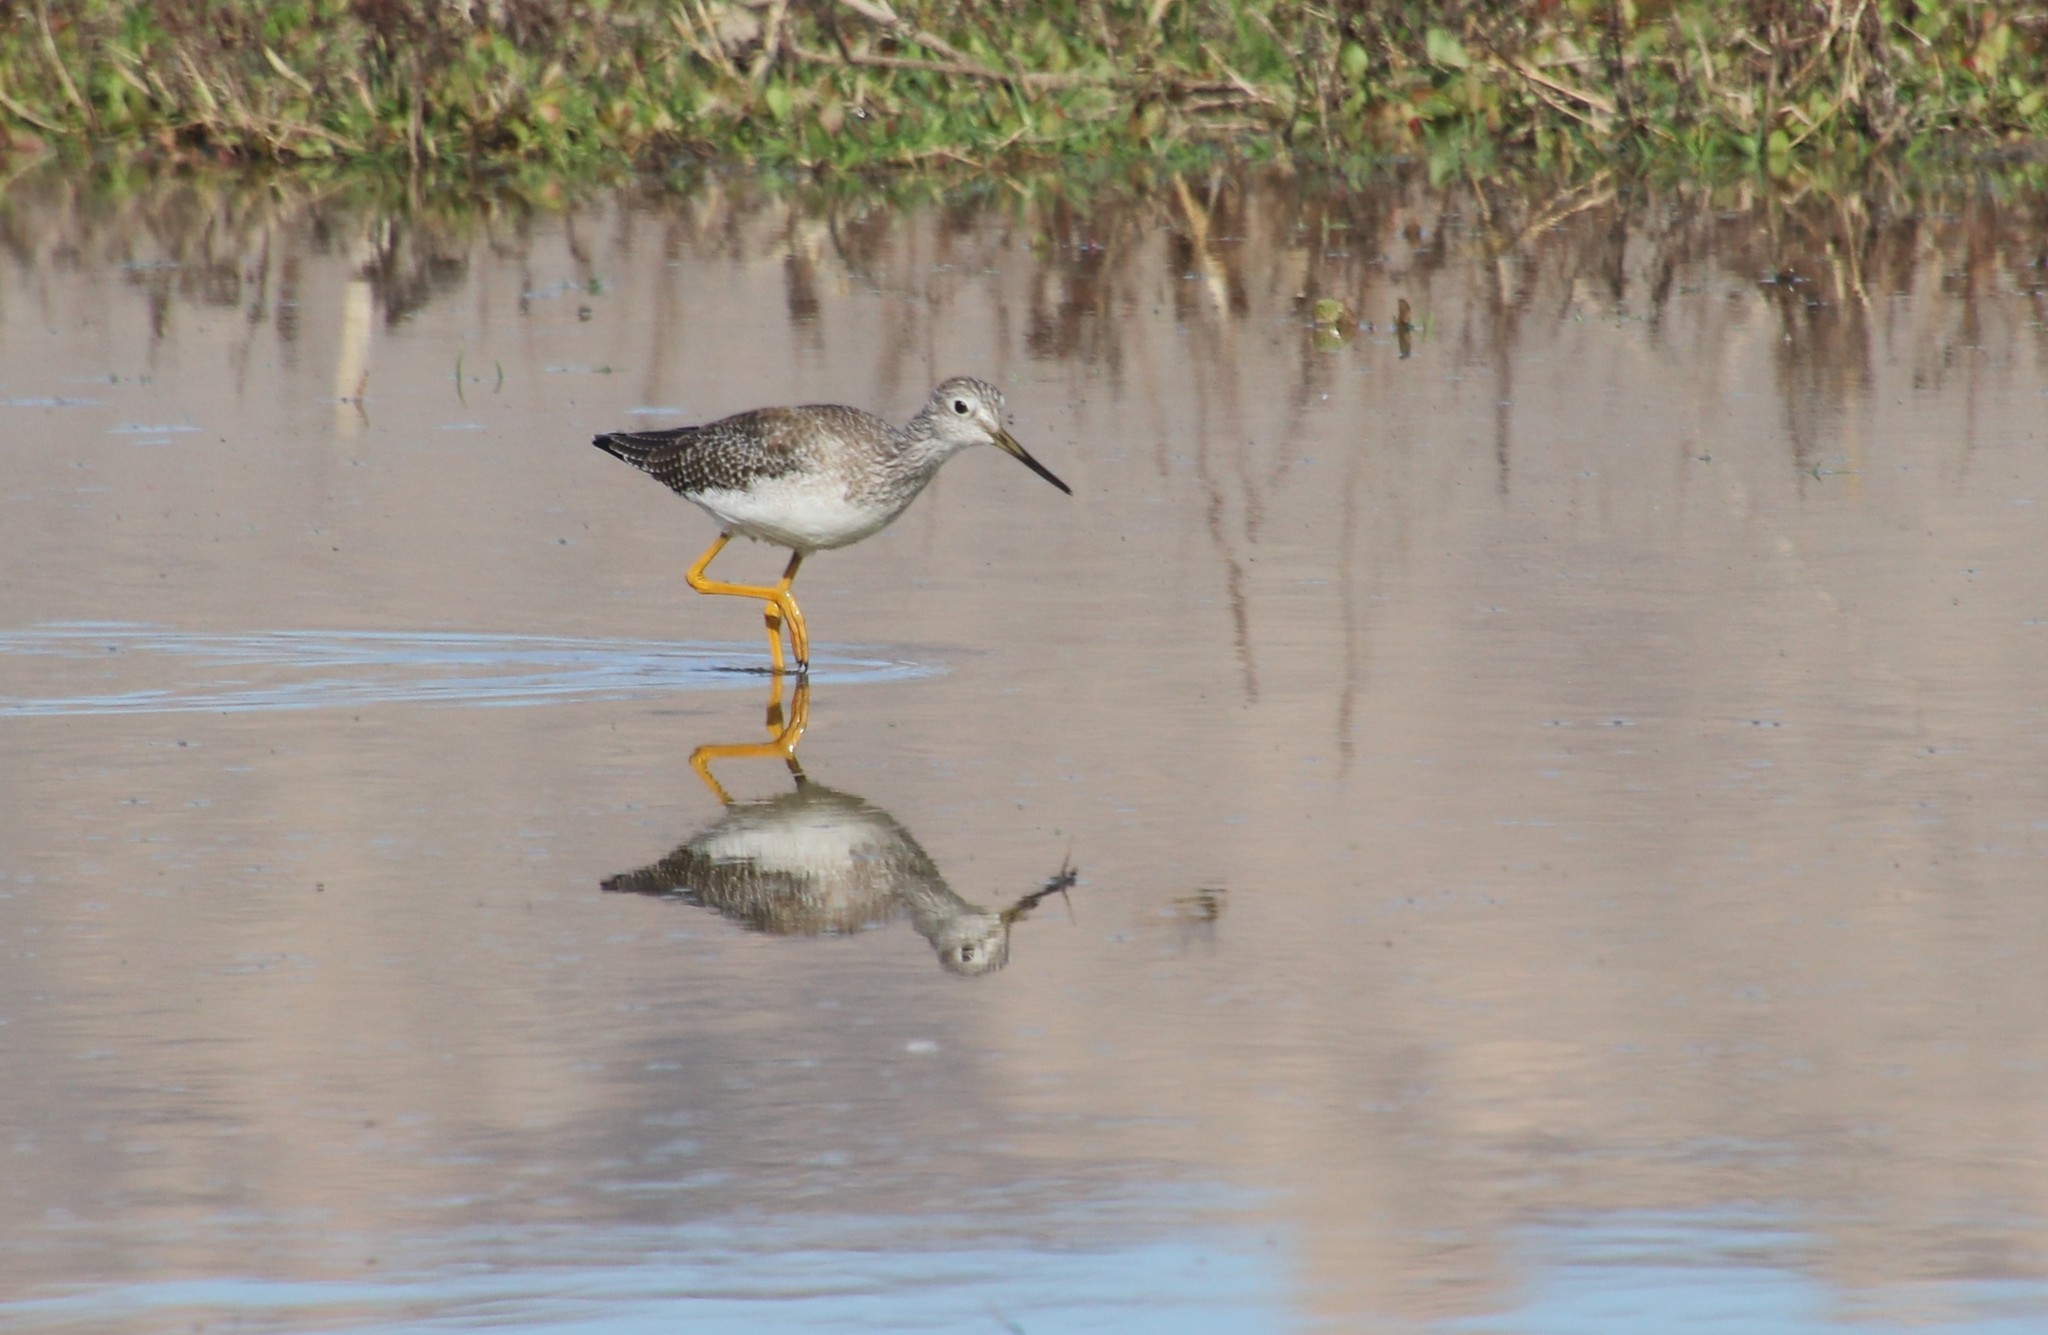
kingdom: Animalia
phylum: Chordata
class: Aves
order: Charadriiformes
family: Scolopacidae
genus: Tringa
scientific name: Tringa melanoleuca
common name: Greater yellowlegs
